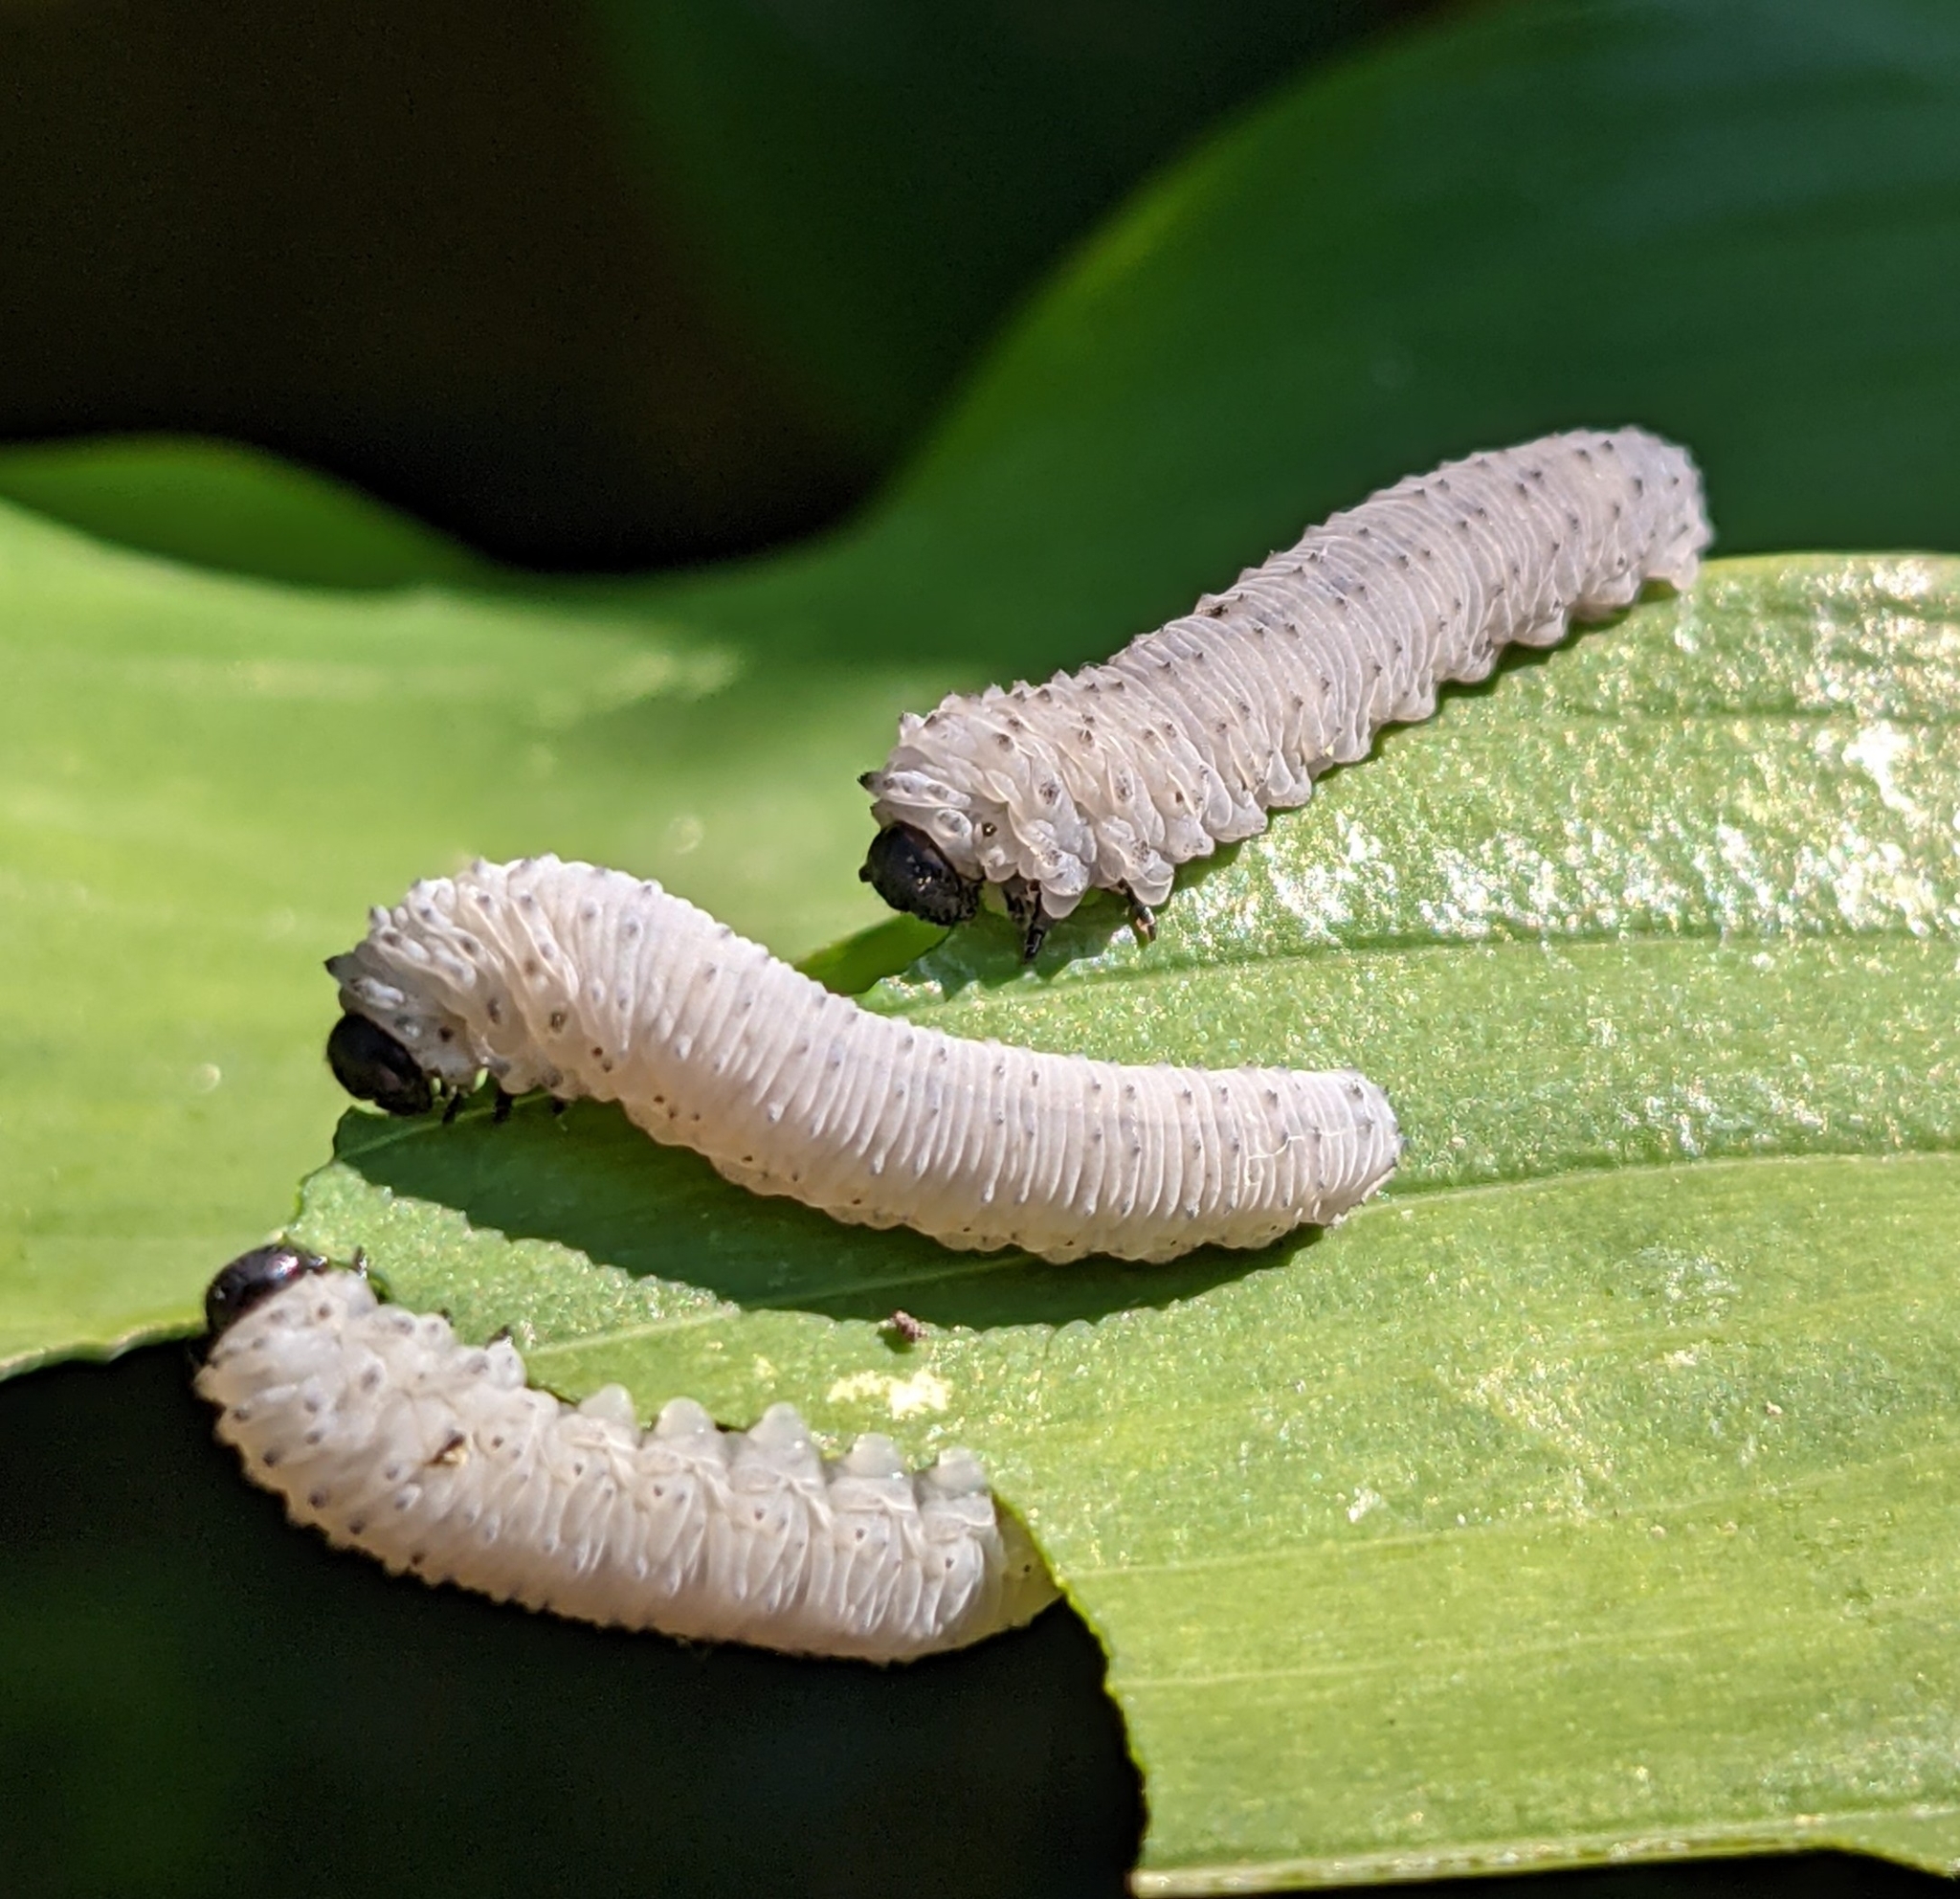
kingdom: Animalia
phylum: Arthropoda
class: Insecta
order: Hymenoptera
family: Tenthredinidae
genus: Phymatocera
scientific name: Phymatocera aterrima
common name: Solomon's-seal sawfly
